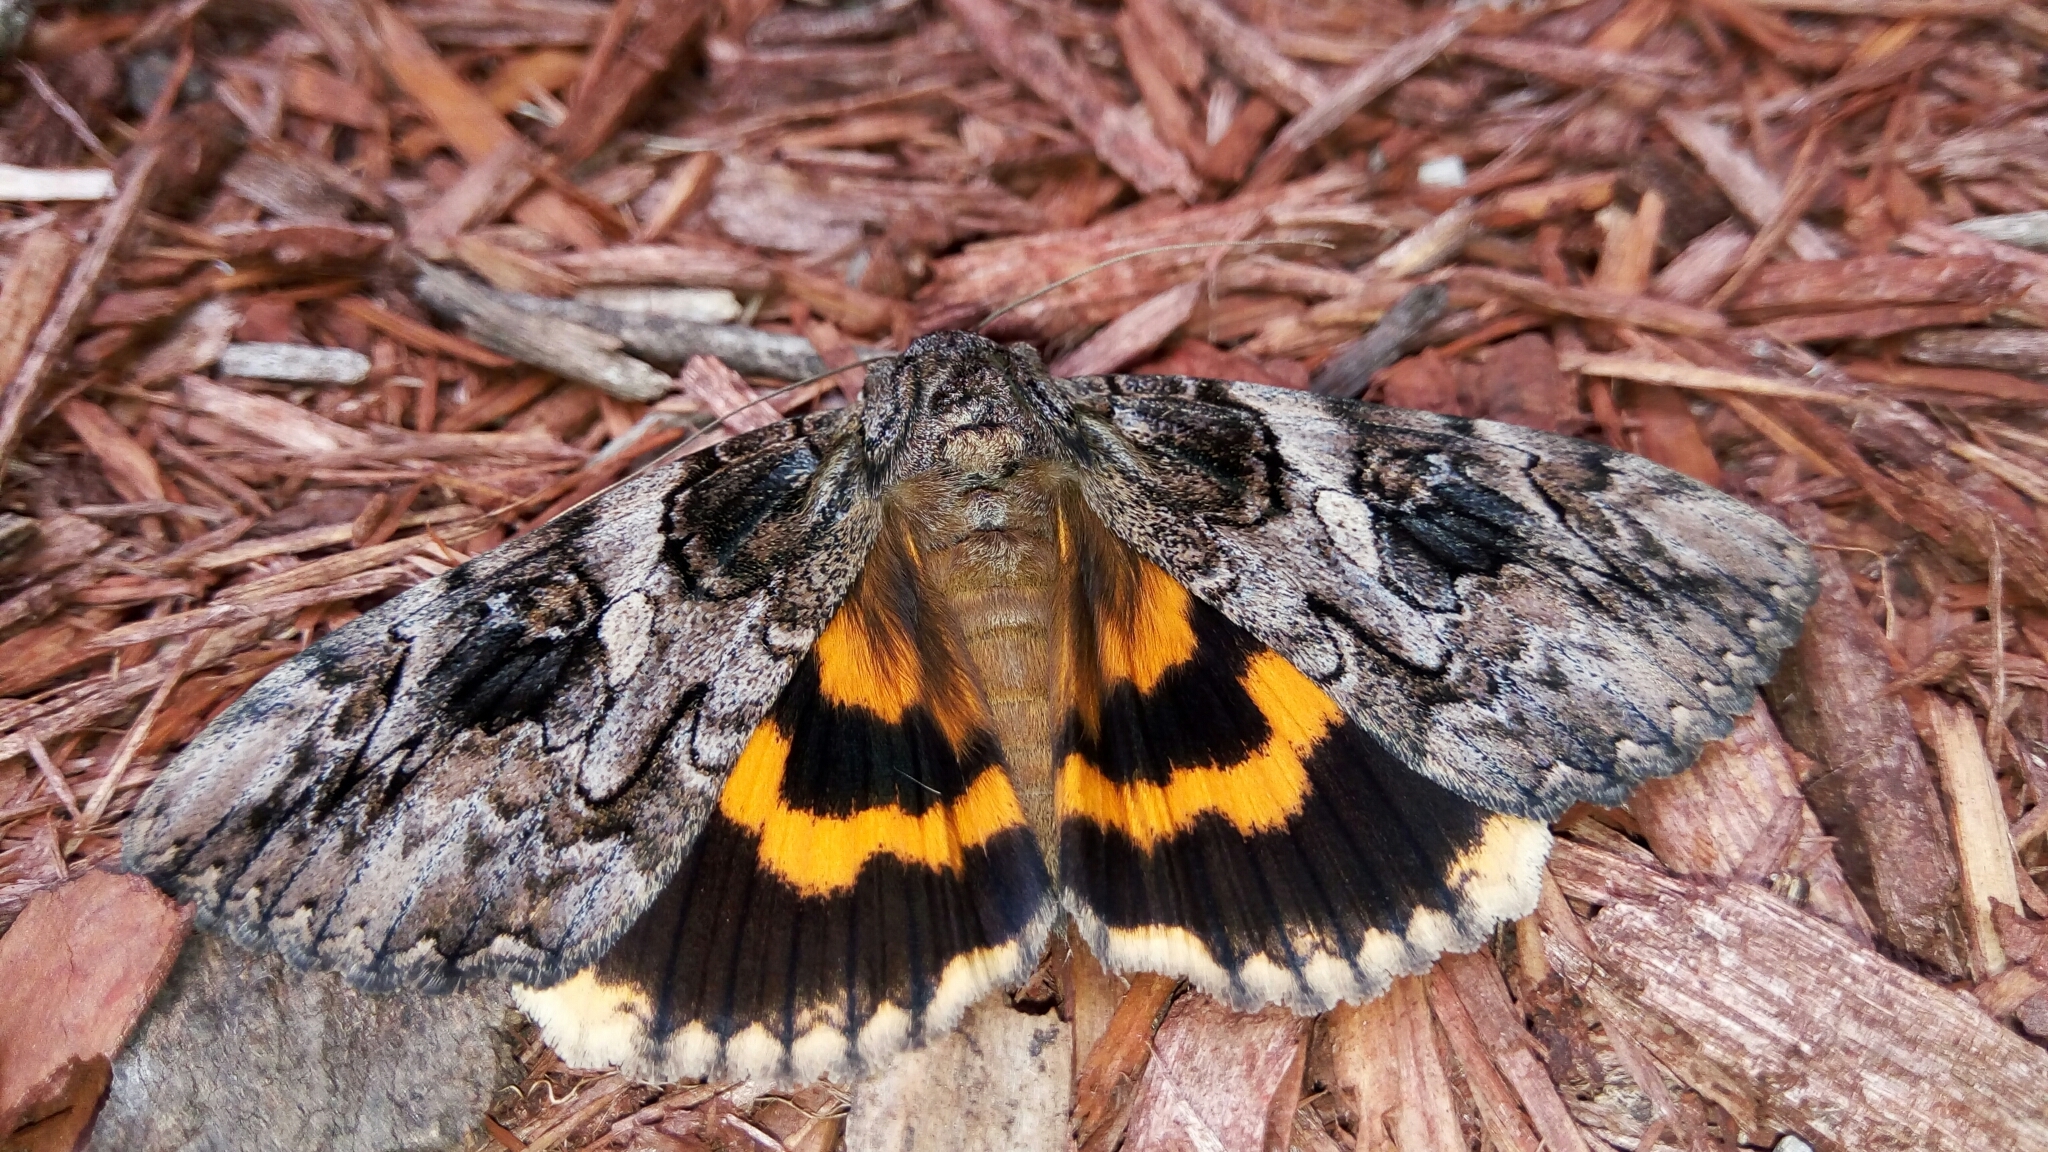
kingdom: Animalia
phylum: Arthropoda
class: Insecta
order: Lepidoptera
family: Erebidae
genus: Catocala
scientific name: Catocala piatrix
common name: The penitent underwing
